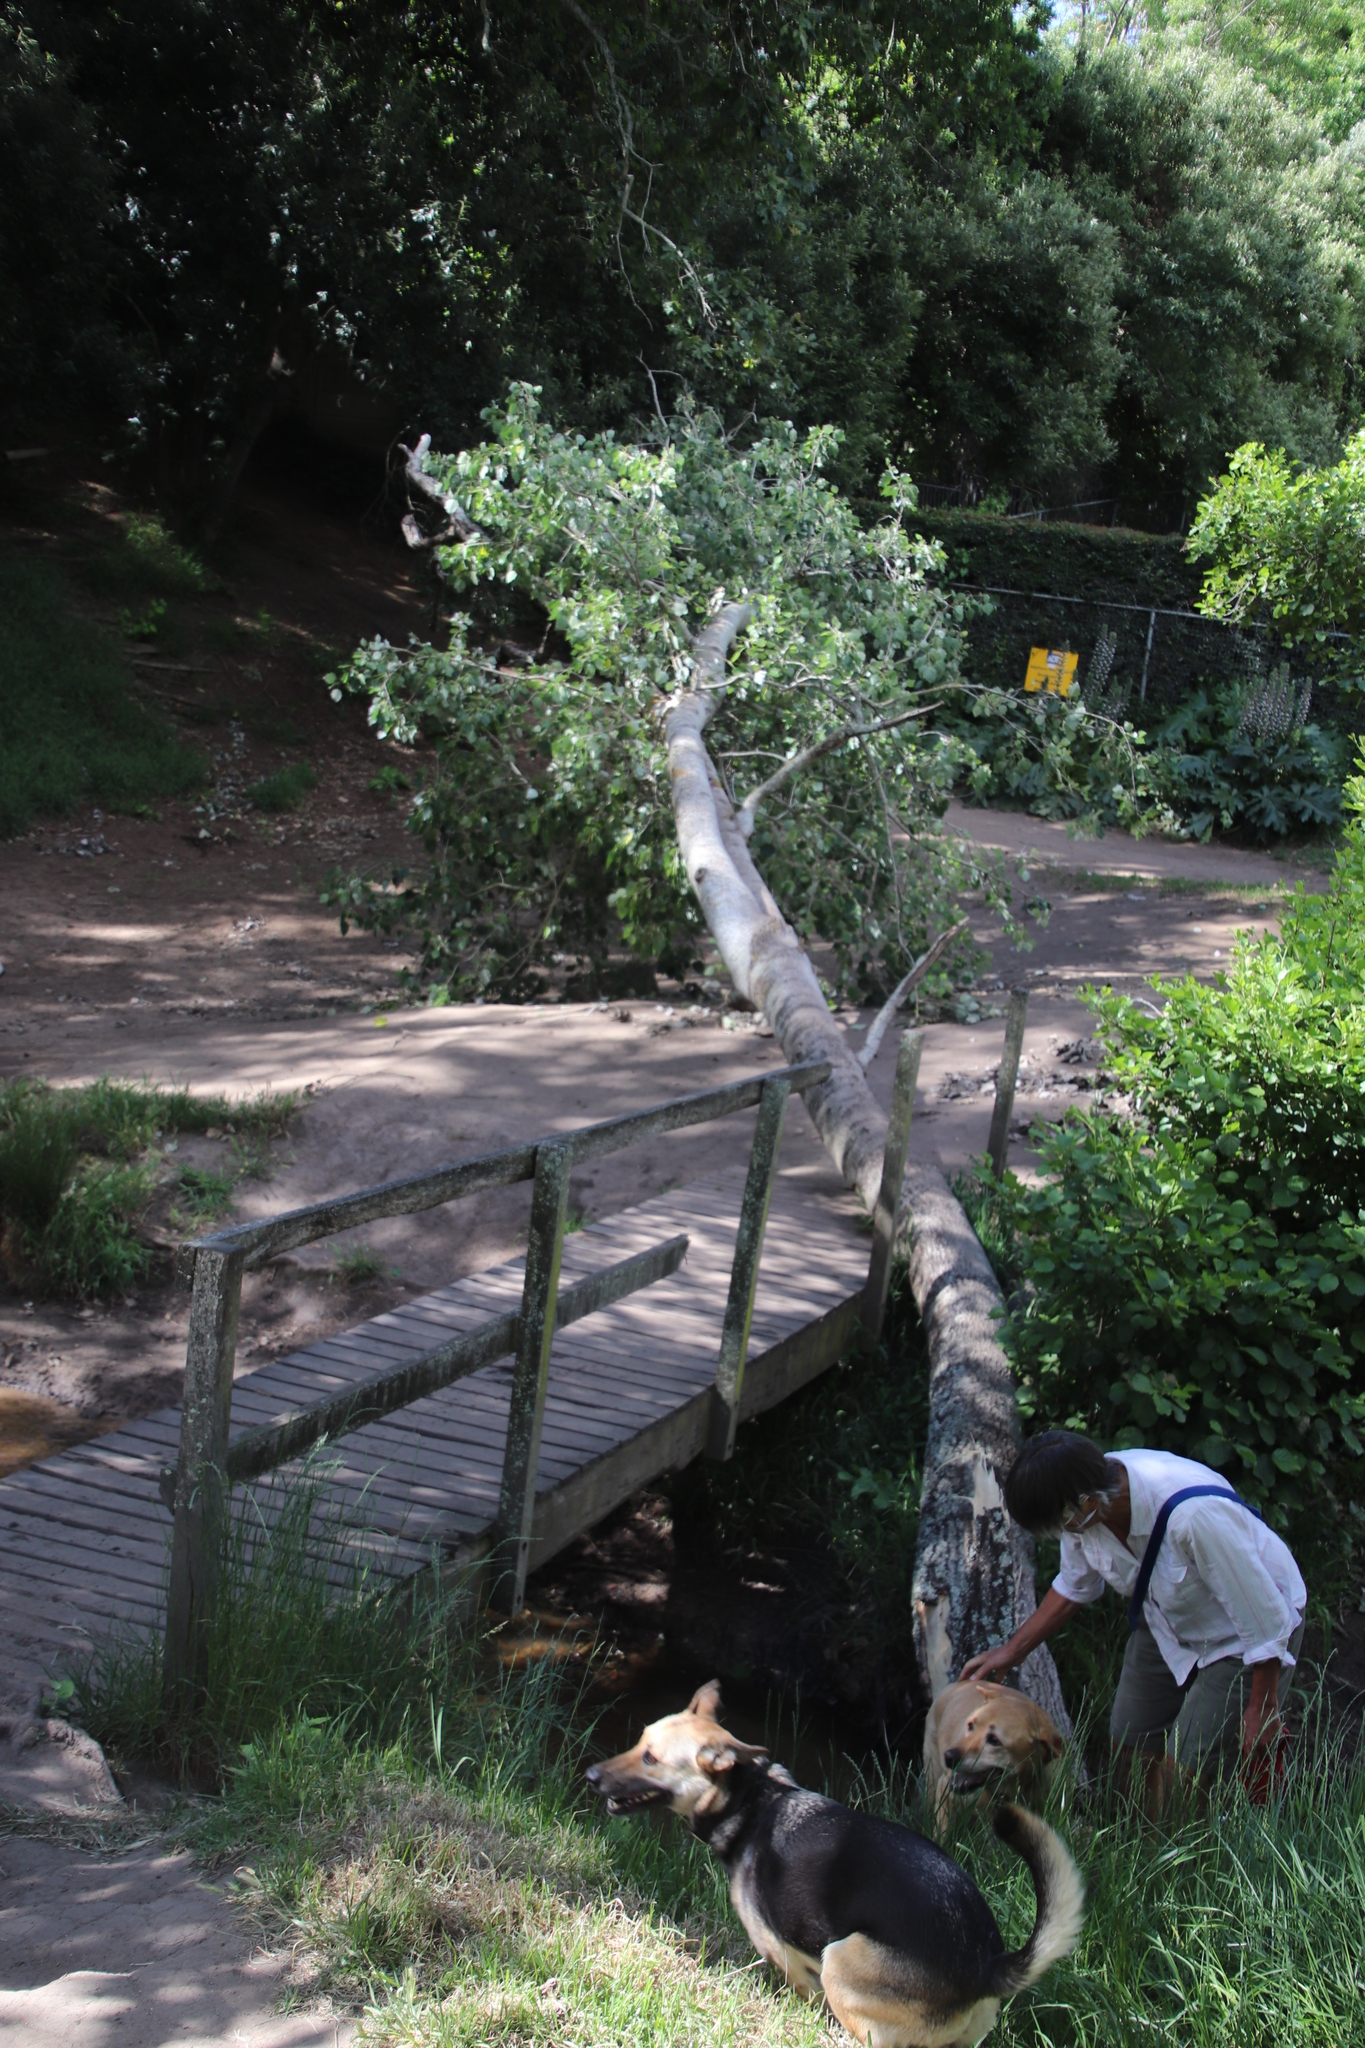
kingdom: Plantae
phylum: Tracheophyta
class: Magnoliopsida
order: Malpighiales
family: Salicaceae
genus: Populus
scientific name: Populus canescens
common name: Gray poplar
